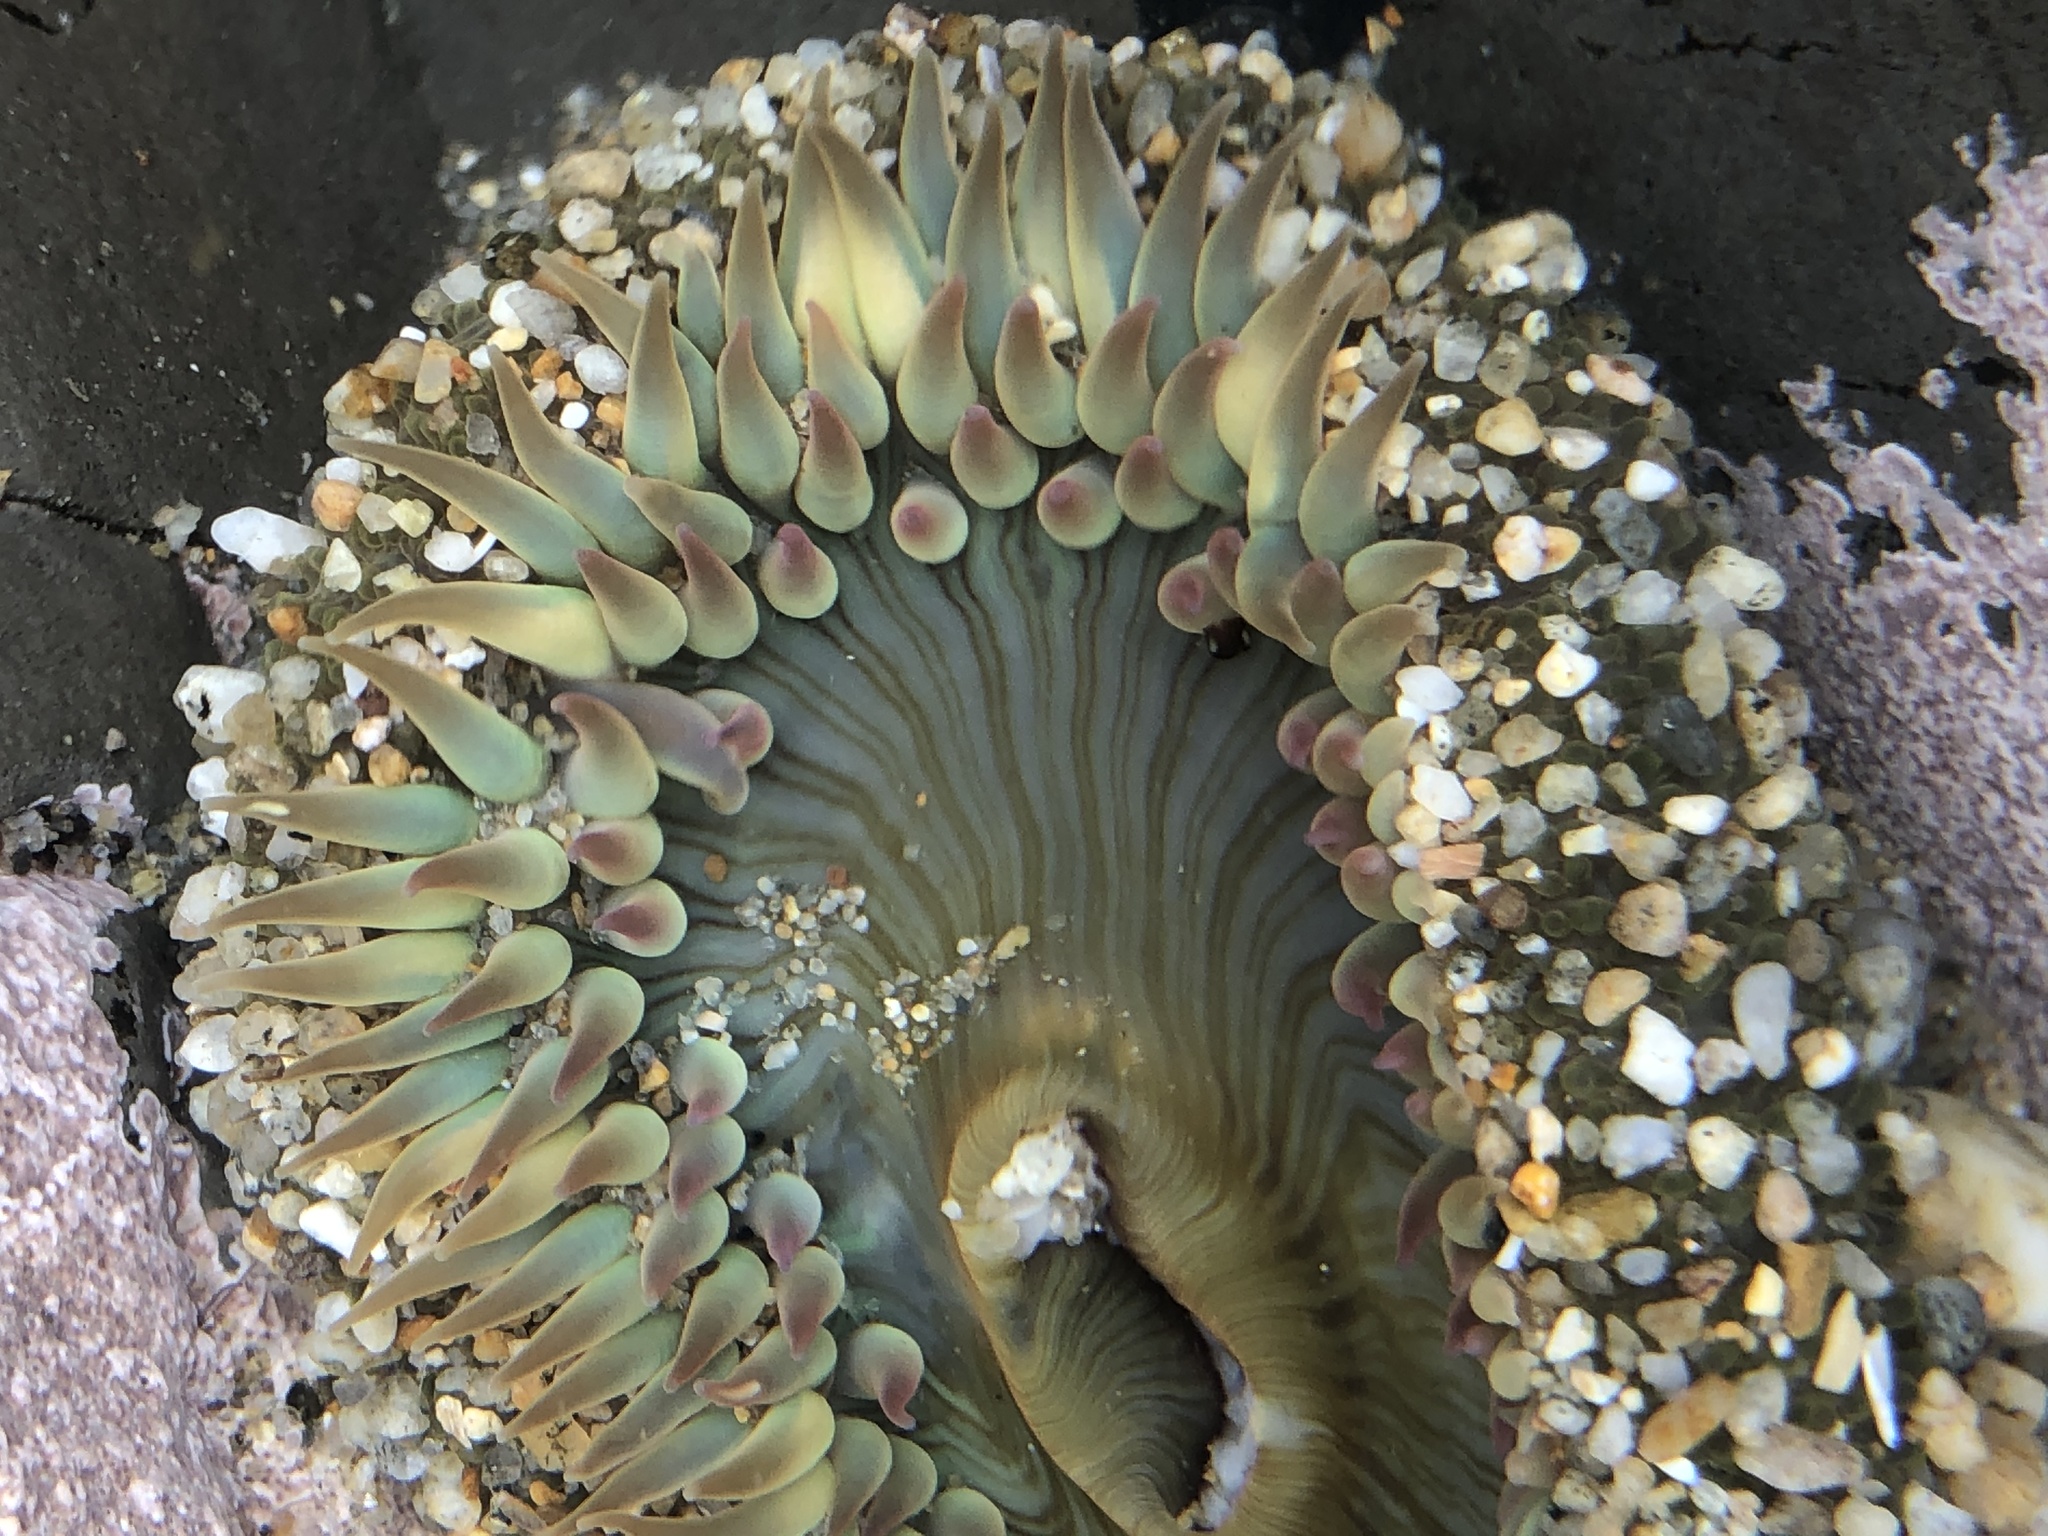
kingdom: Animalia
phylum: Cnidaria
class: Anthozoa
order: Actiniaria
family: Actiniidae
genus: Anthopleura
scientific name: Anthopleura sola
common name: Sun anemone
